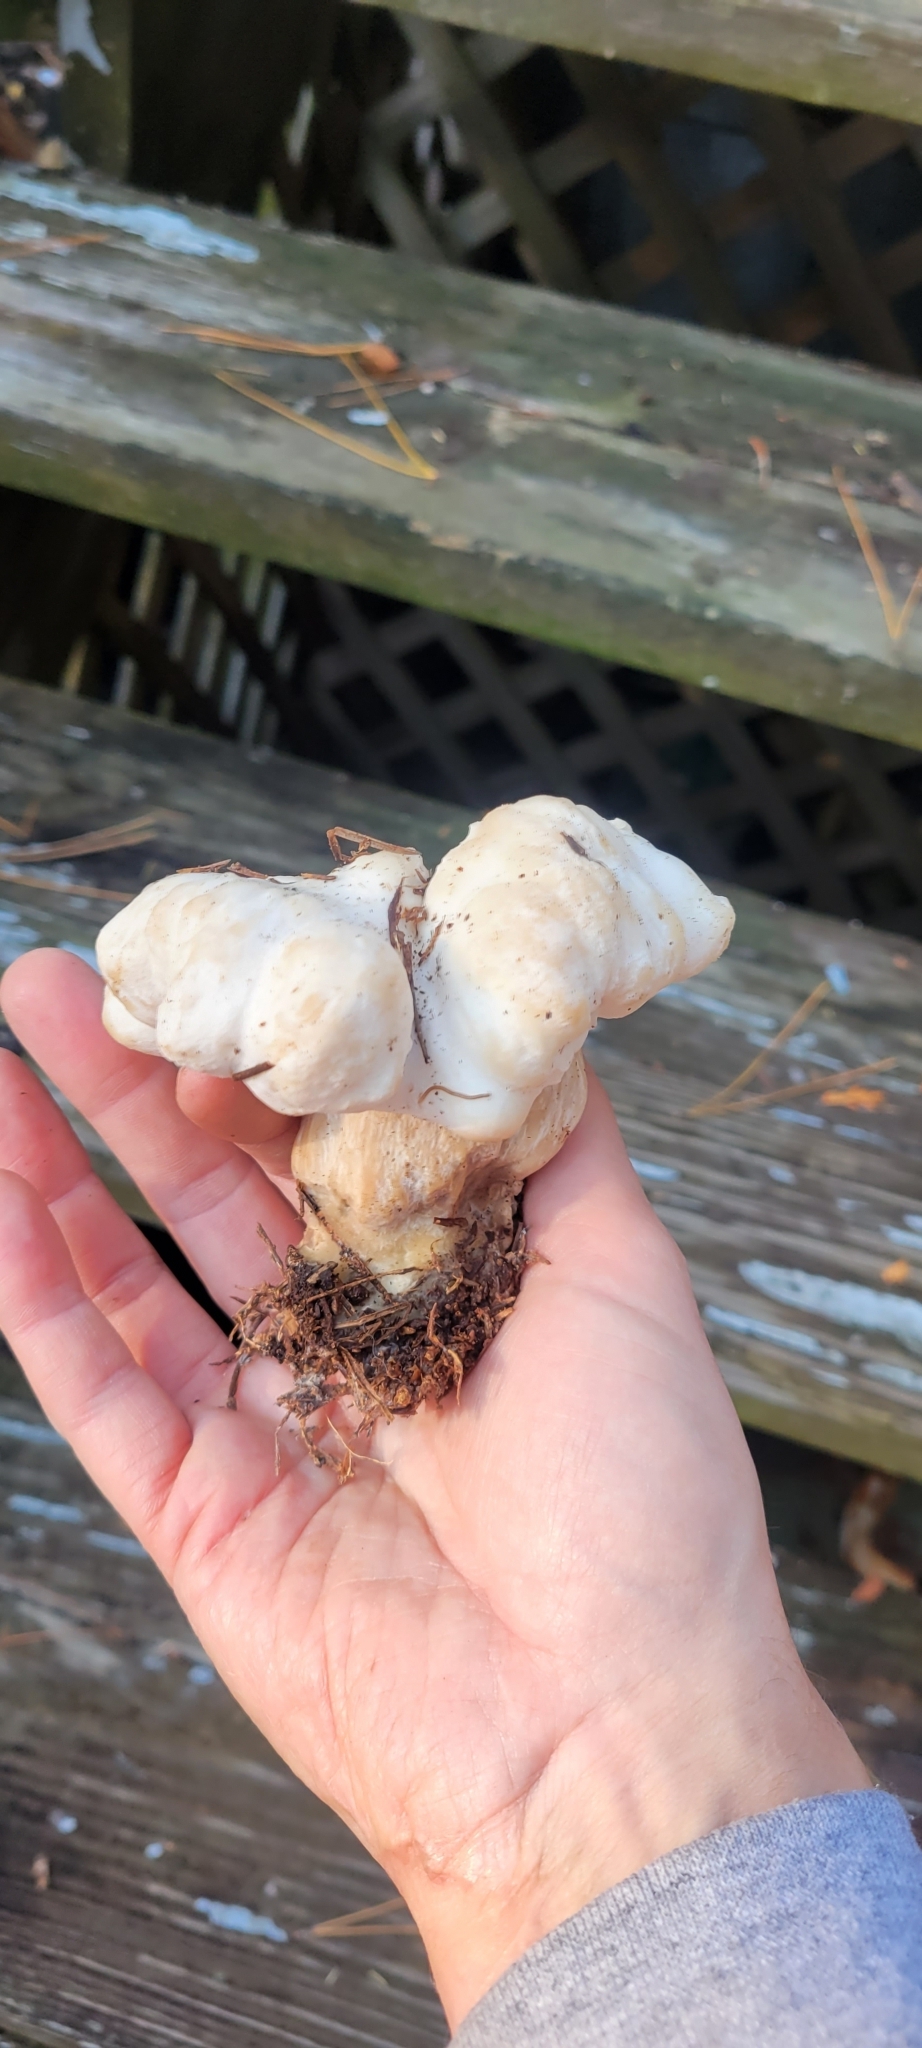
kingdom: Fungi
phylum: Basidiomycota
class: Agaricomycetes
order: Agaricales
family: Entolomataceae
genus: Entoloma
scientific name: Entoloma abortivum
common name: Aborted entoloma
